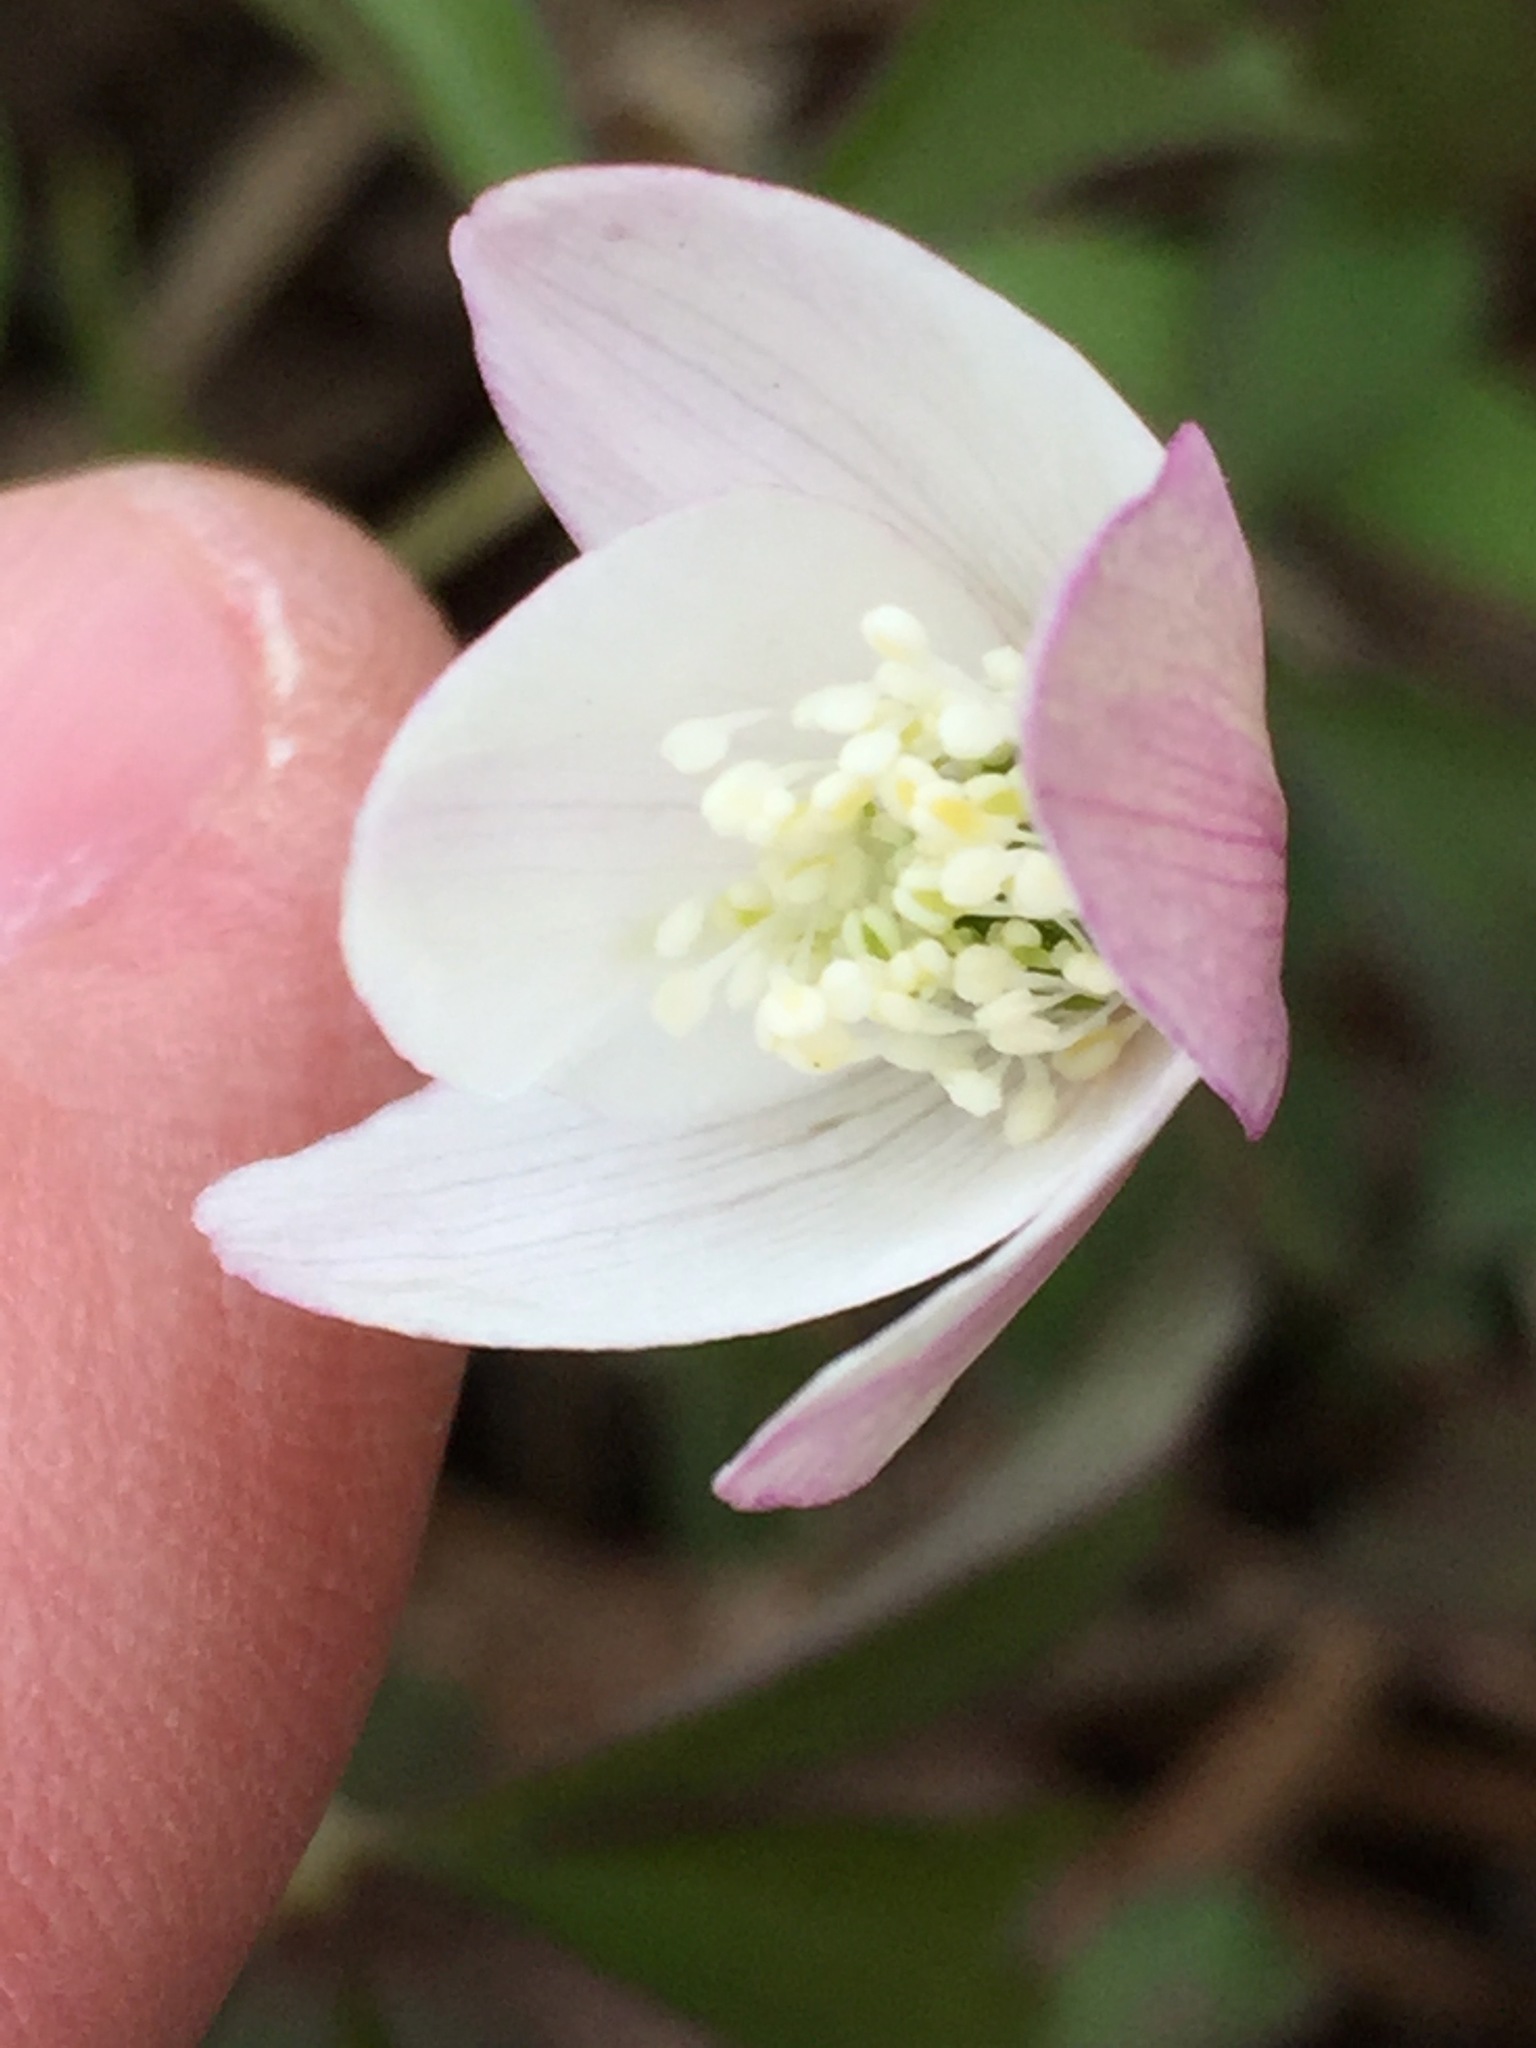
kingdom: Plantae
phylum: Tracheophyta
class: Magnoliopsida
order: Ranunculales
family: Ranunculaceae
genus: Anemone
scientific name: Anemone quinquefolia
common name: Wood anemone
